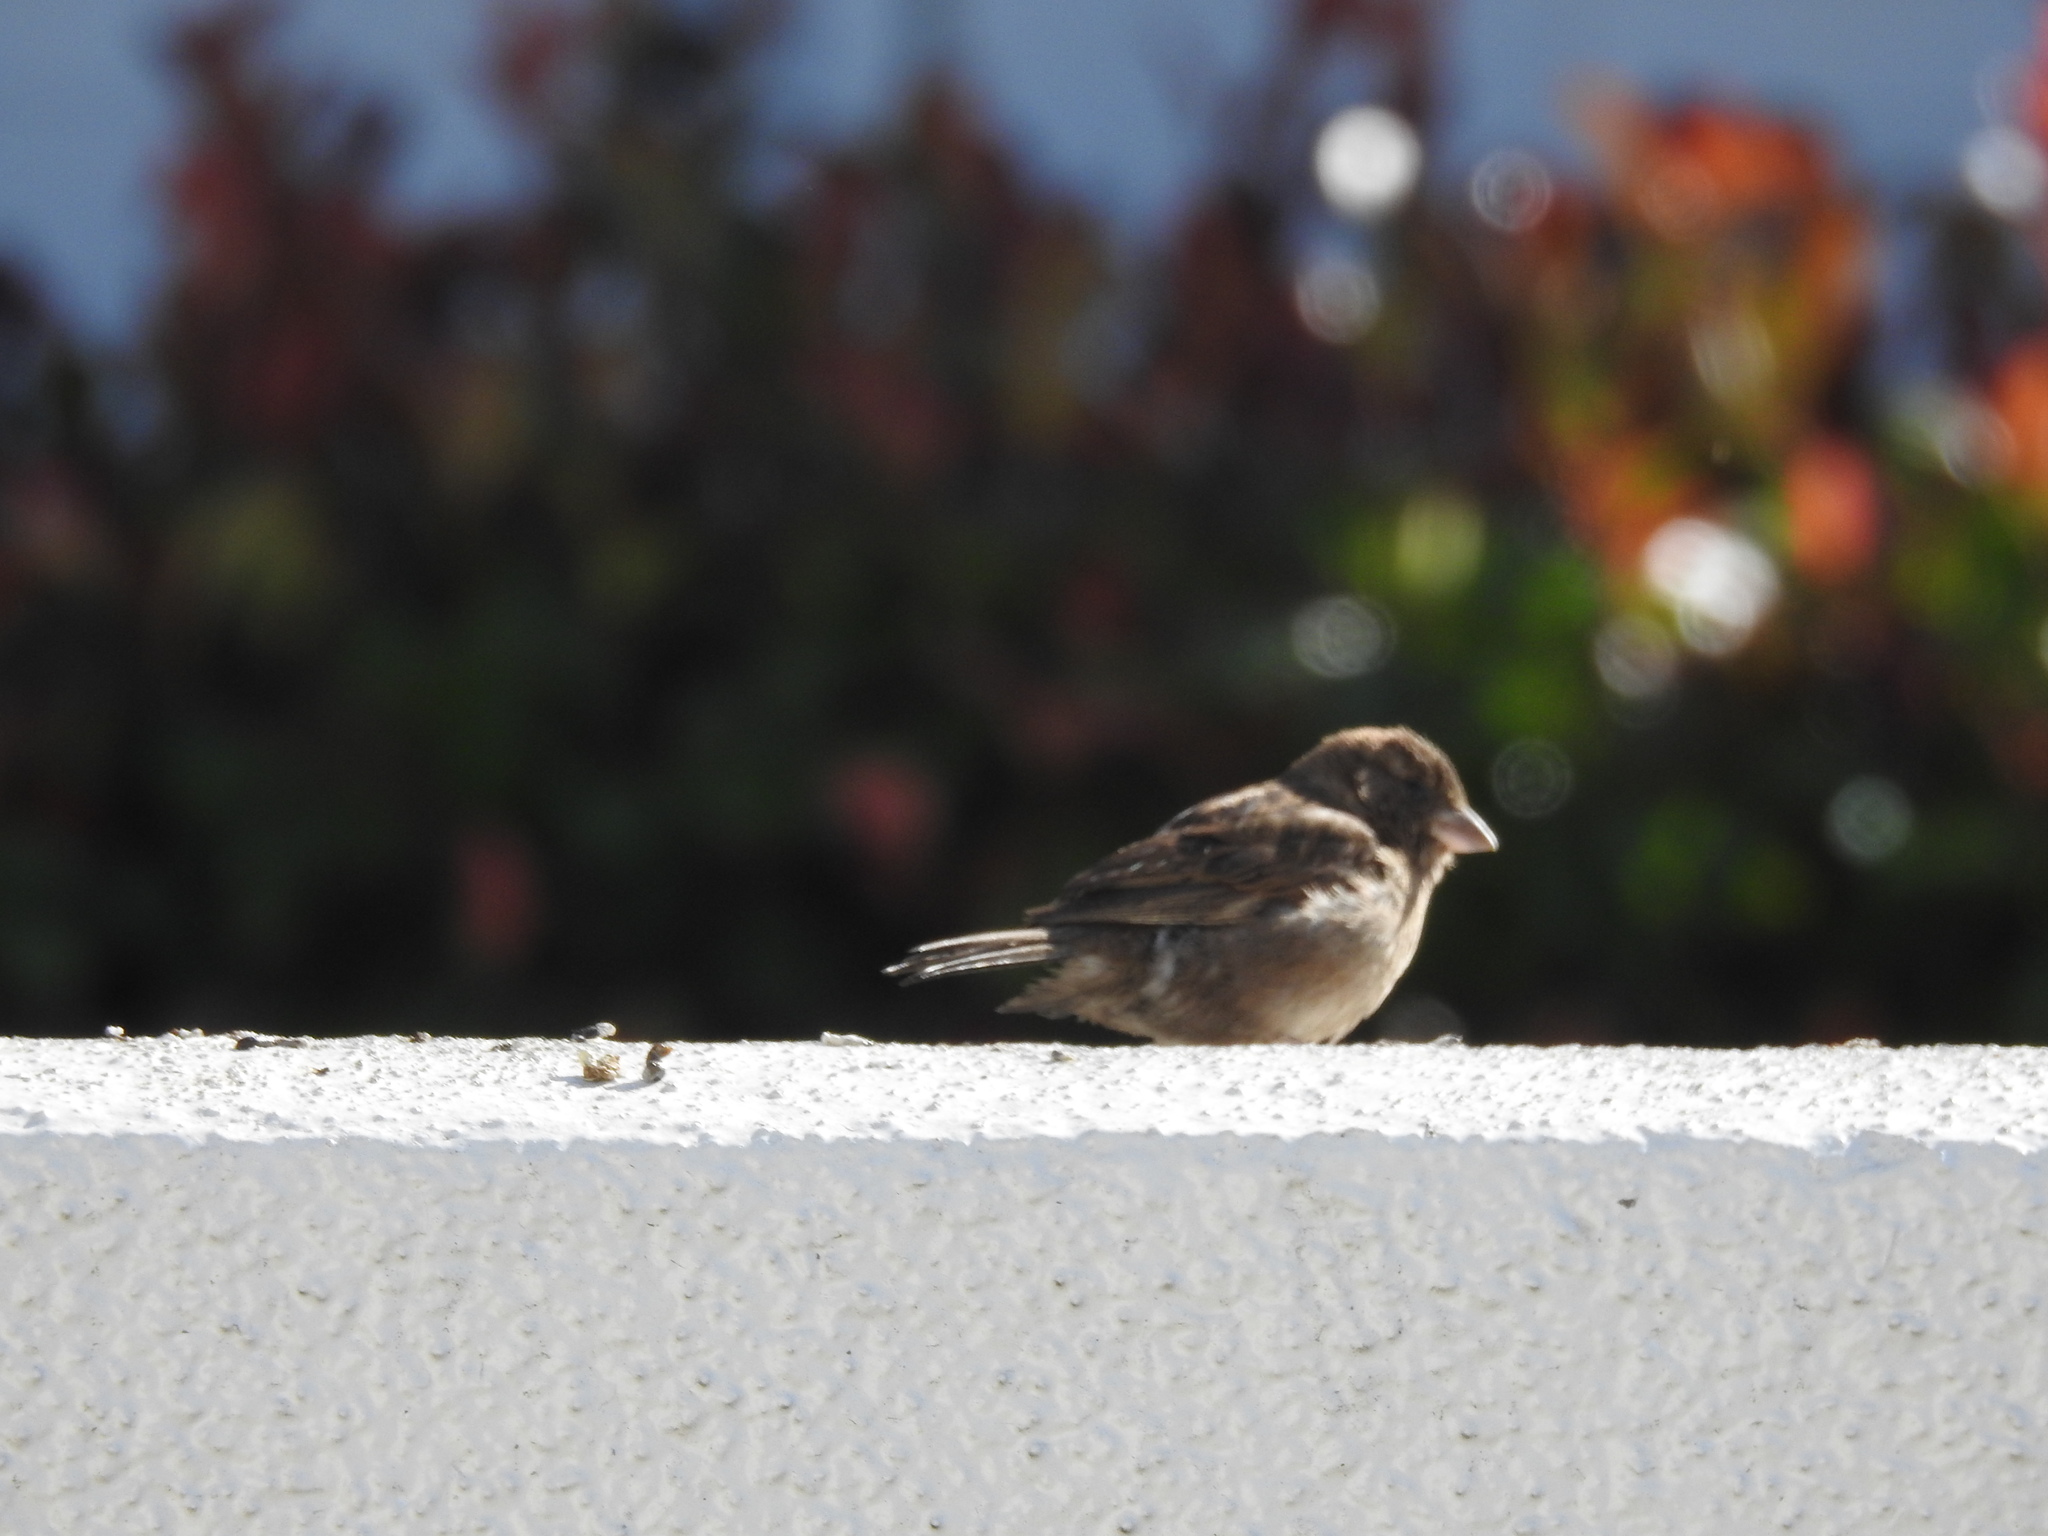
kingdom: Animalia
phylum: Chordata
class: Aves
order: Passeriformes
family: Passeridae
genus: Passer
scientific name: Passer domesticus
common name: House sparrow
